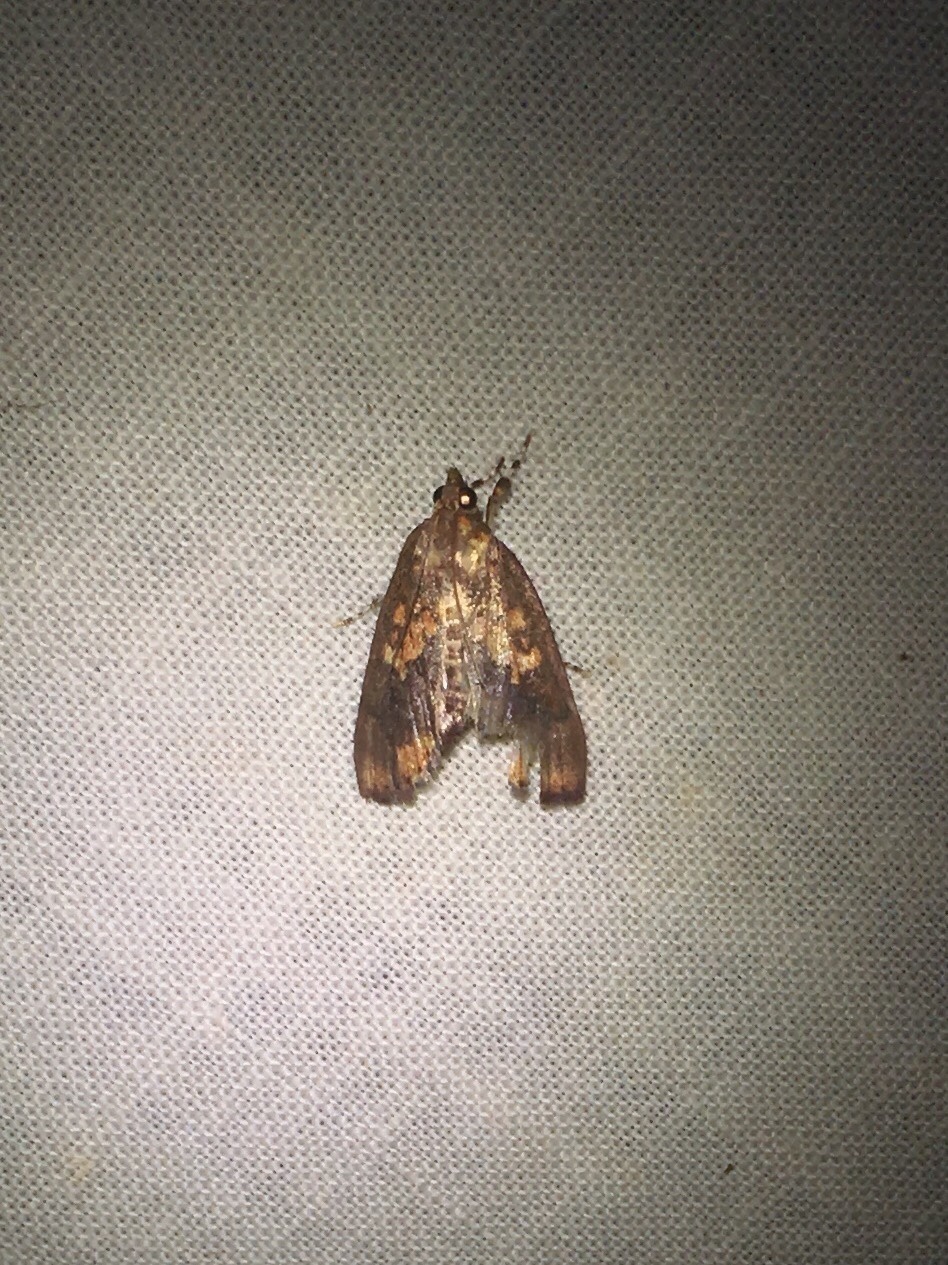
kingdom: Animalia
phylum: Arthropoda
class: Insecta
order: Lepidoptera
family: Crambidae
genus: Mimophobetron
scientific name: Mimophobetron pyropsalis
